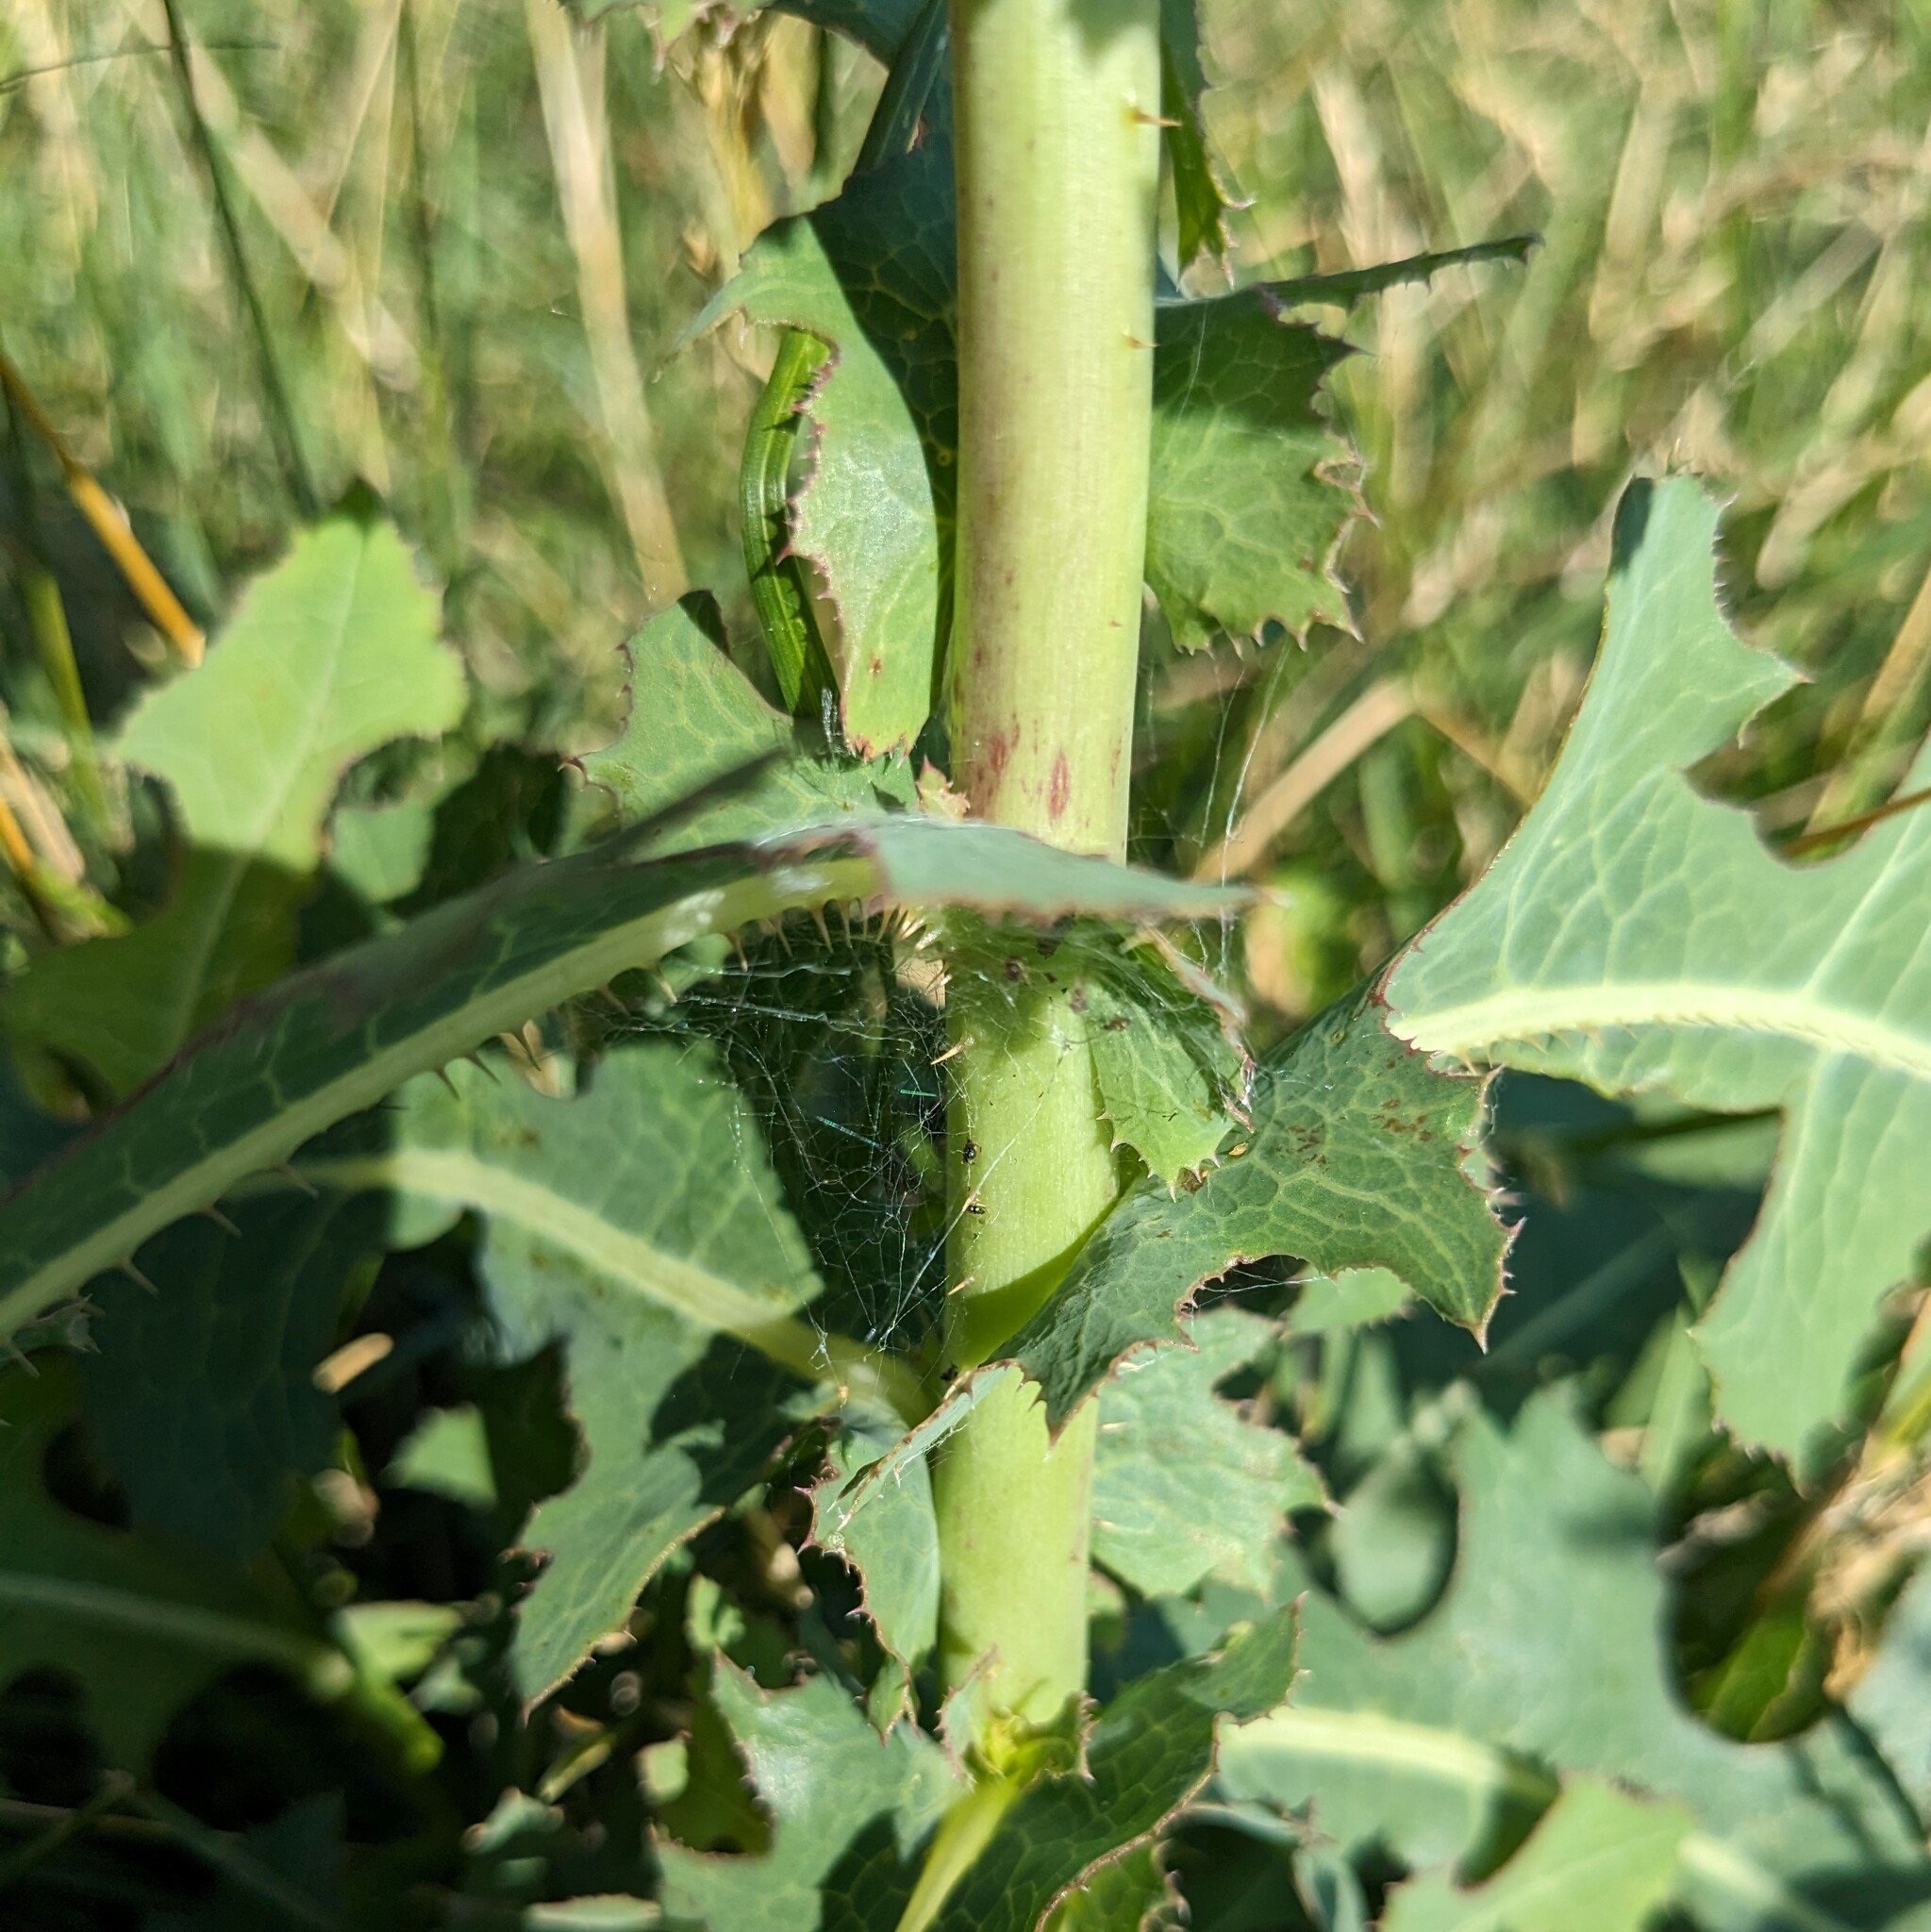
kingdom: Plantae
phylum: Tracheophyta
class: Magnoliopsida
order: Asterales
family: Asteraceae
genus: Lactuca
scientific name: Lactuca serriola
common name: Prickly lettuce
